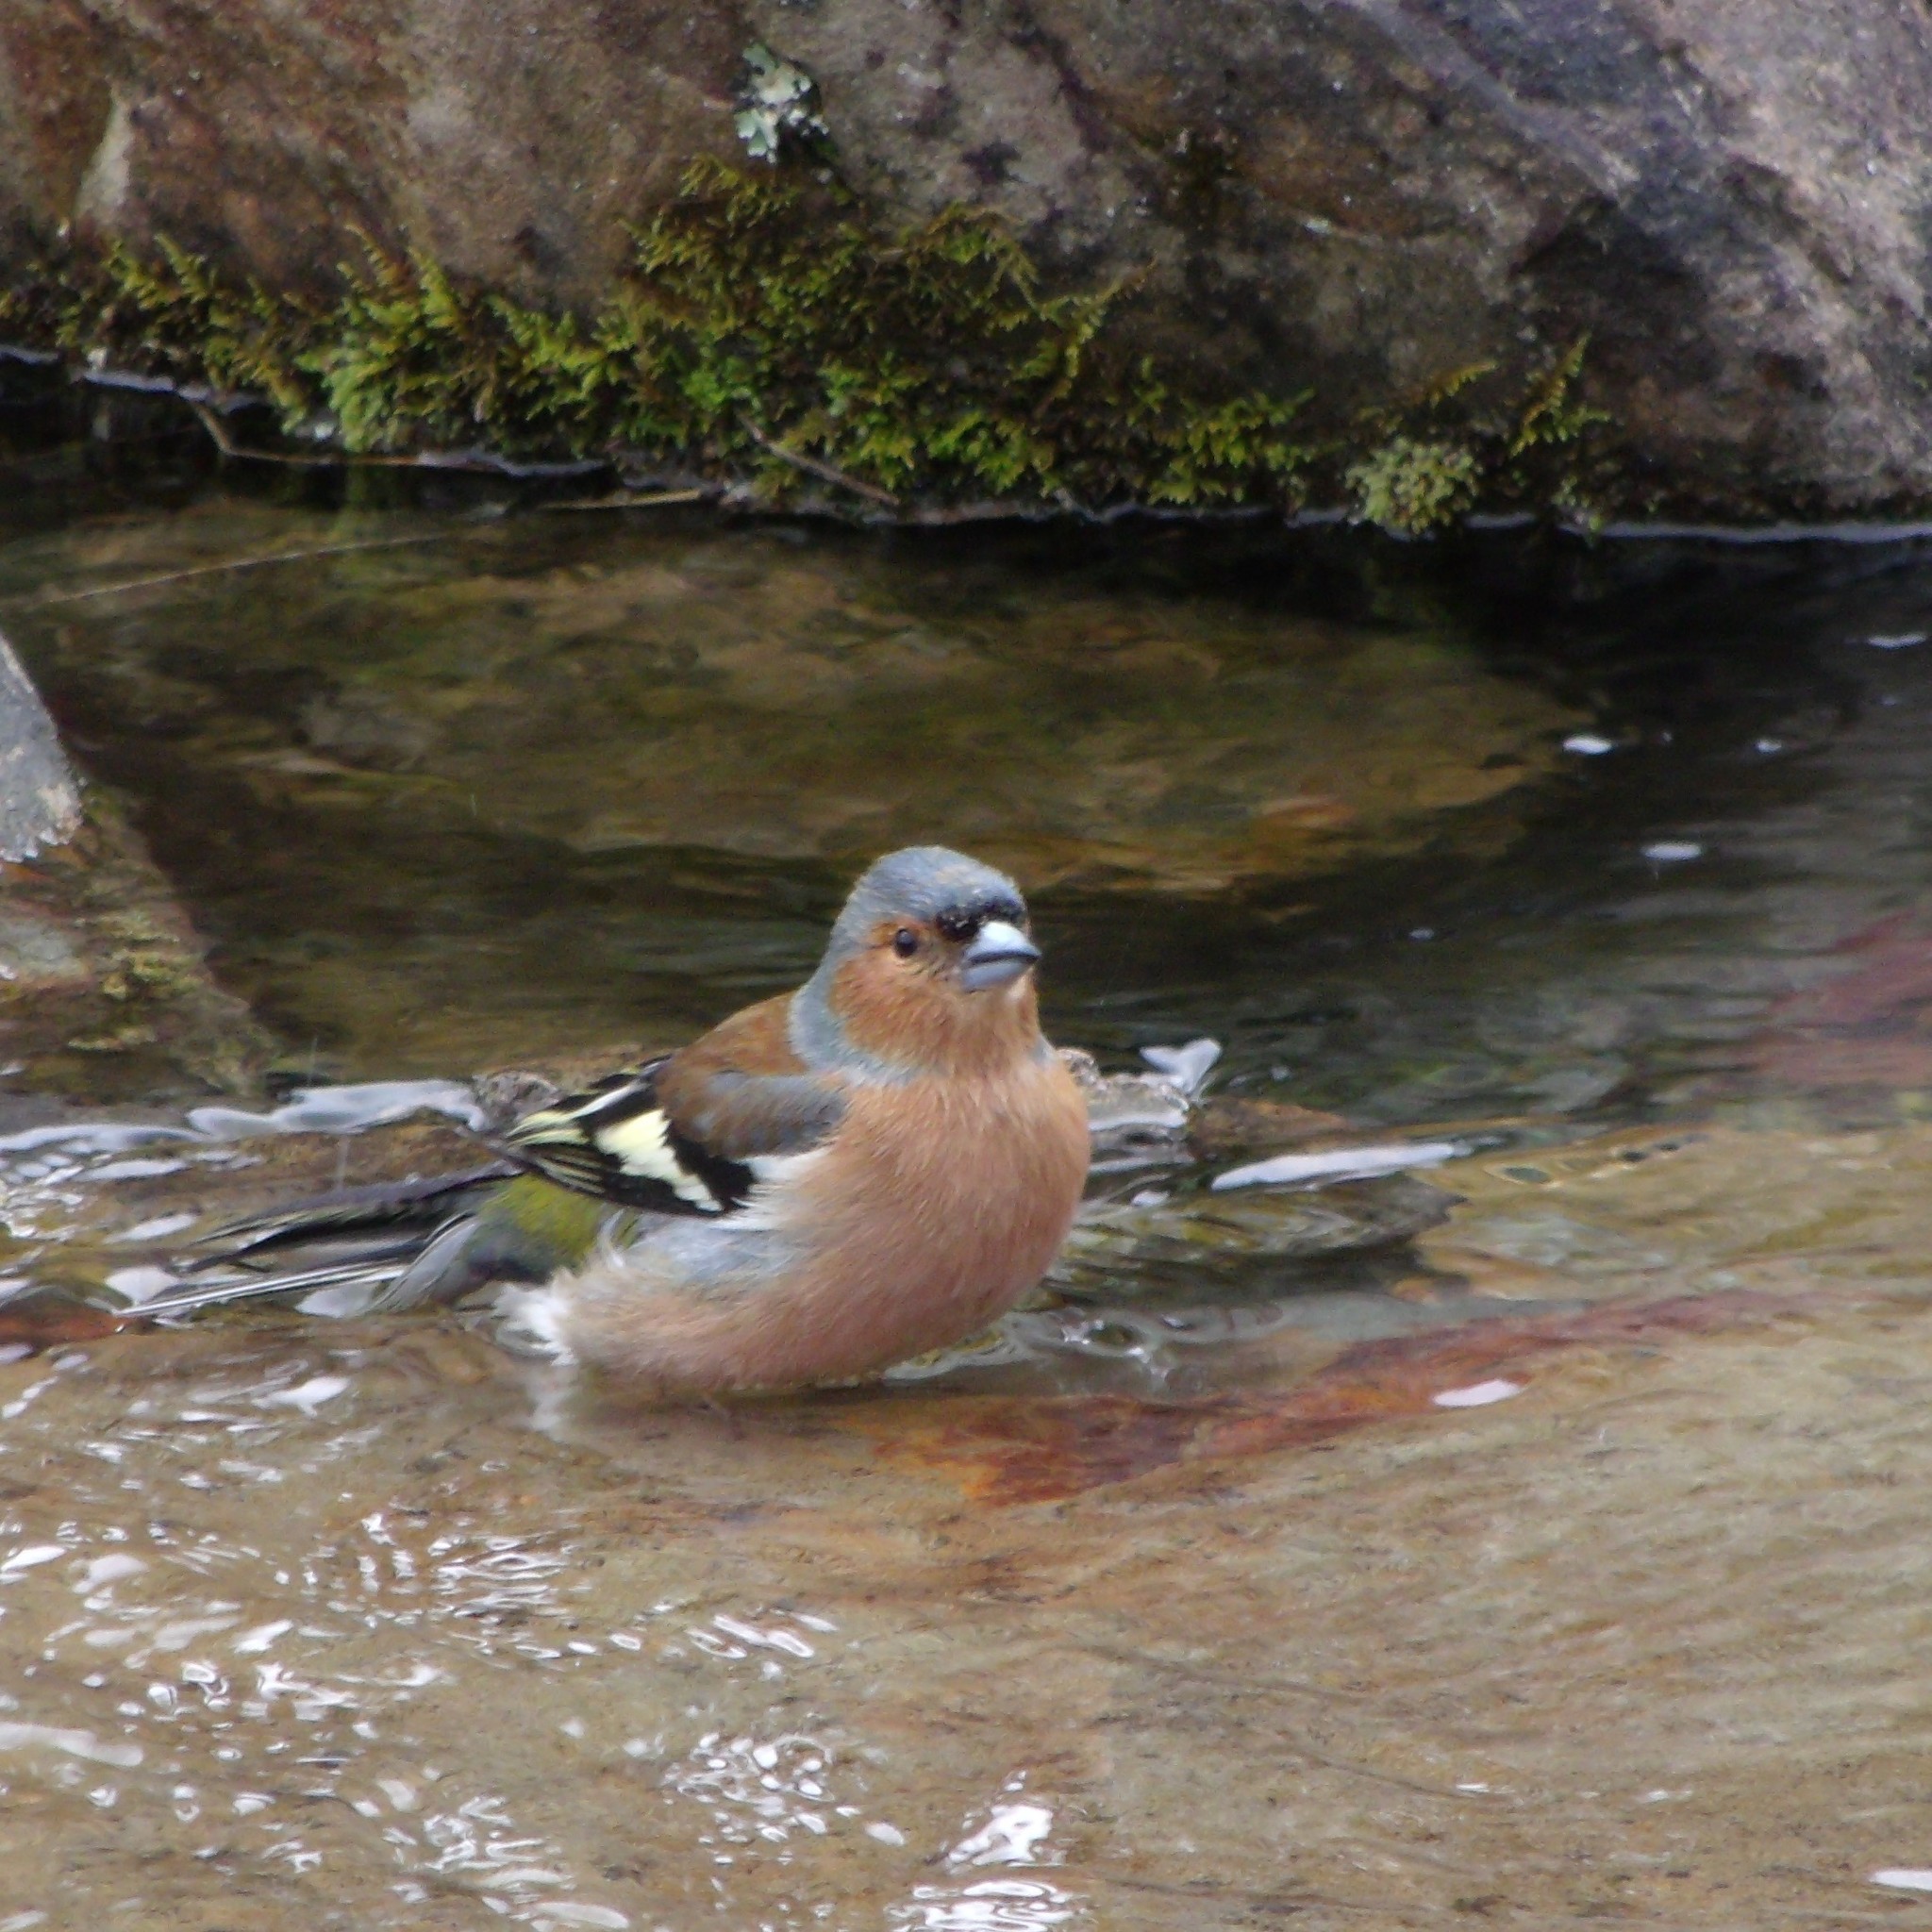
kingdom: Animalia
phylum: Chordata
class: Aves
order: Passeriformes
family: Fringillidae
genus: Fringilla
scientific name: Fringilla coelebs
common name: Common chaffinch
